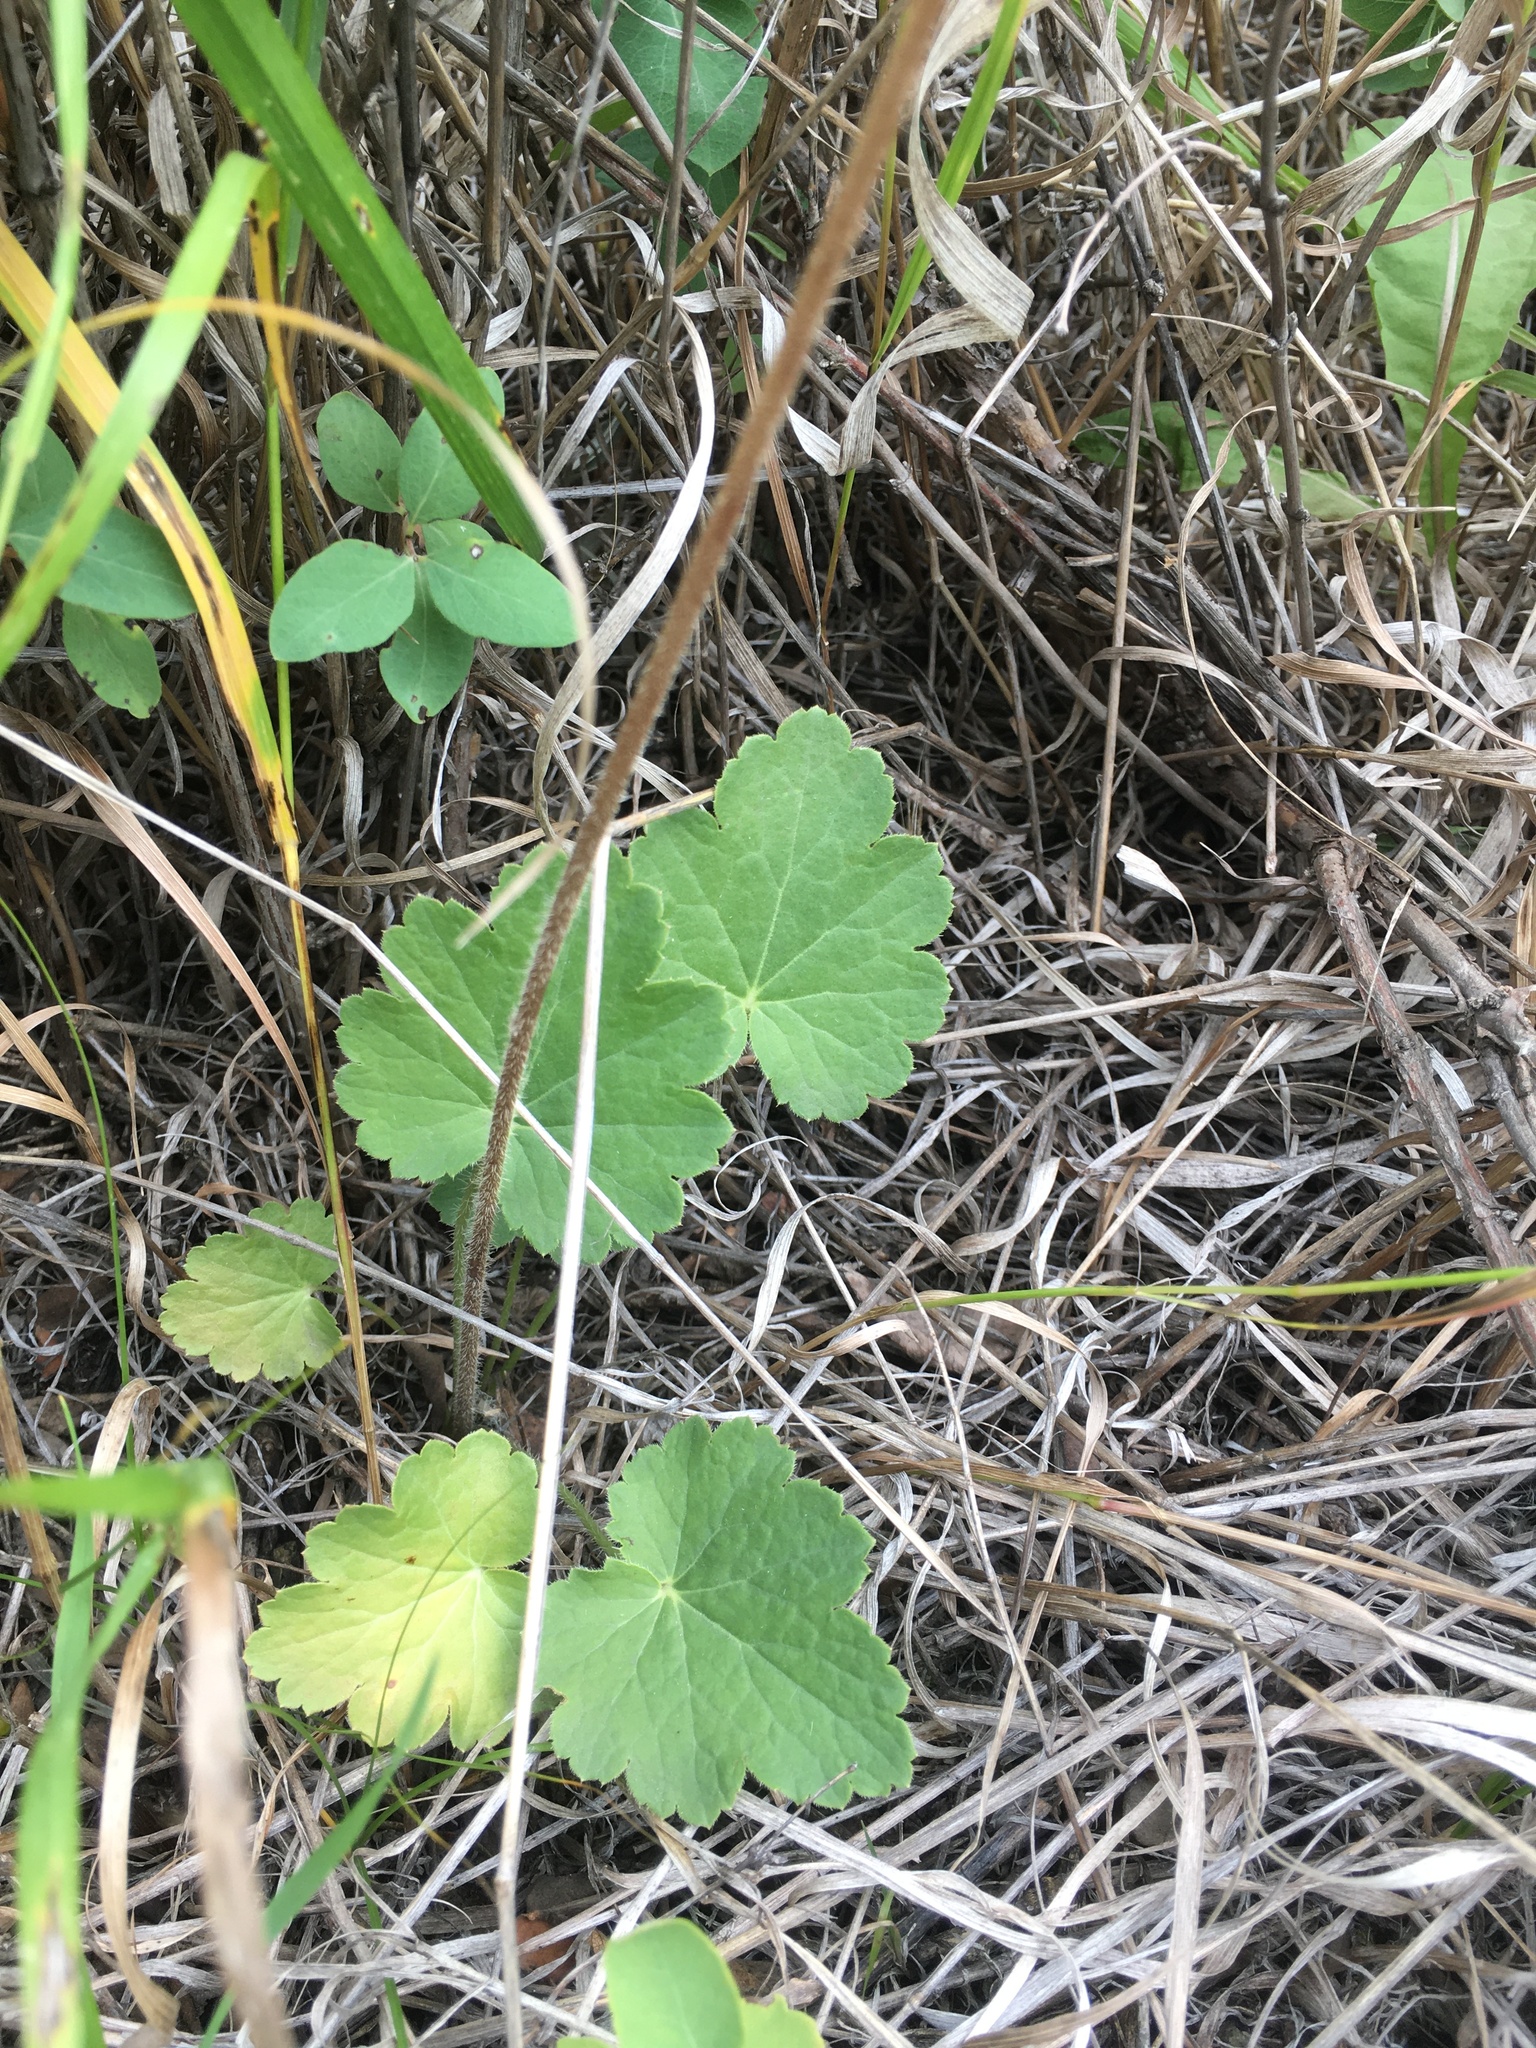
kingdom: Plantae
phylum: Tracheophyta
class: Magnoliopsida
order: Saxifragales
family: Saxifragaceae
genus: Heuchera
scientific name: Heuchera richardsonii
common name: Richardson's alumroot
